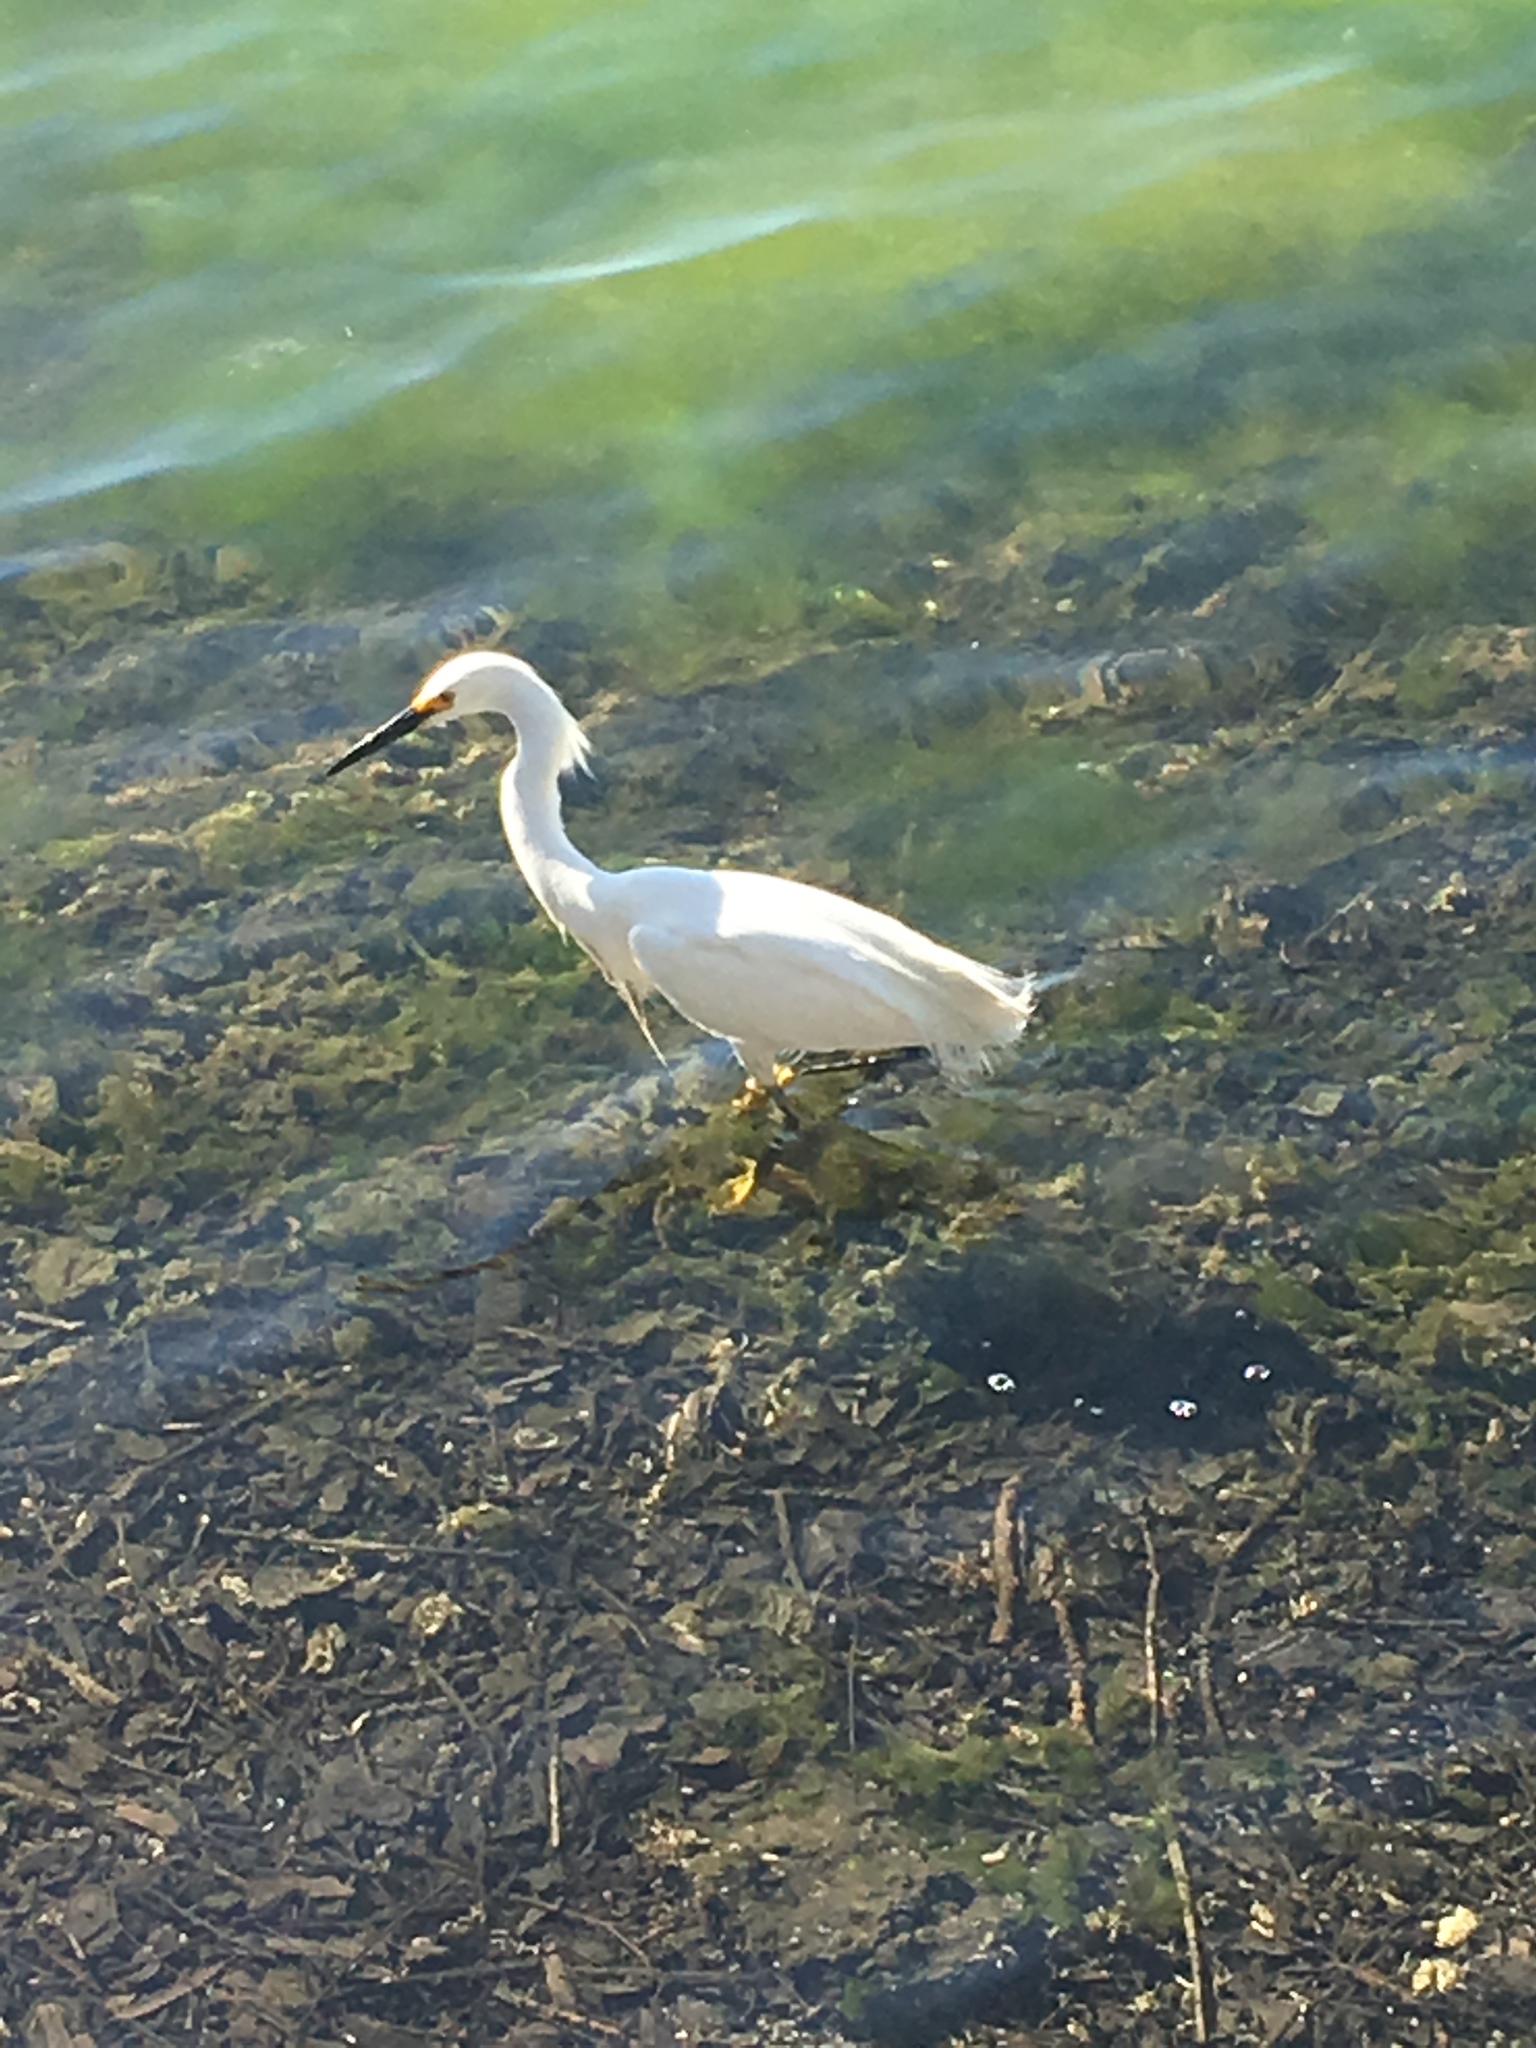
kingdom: Animalia
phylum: Chordata
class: Aves
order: Pelecaniformes
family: Ardeidae
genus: Egretta
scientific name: Egretta thula
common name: Snowy egret
